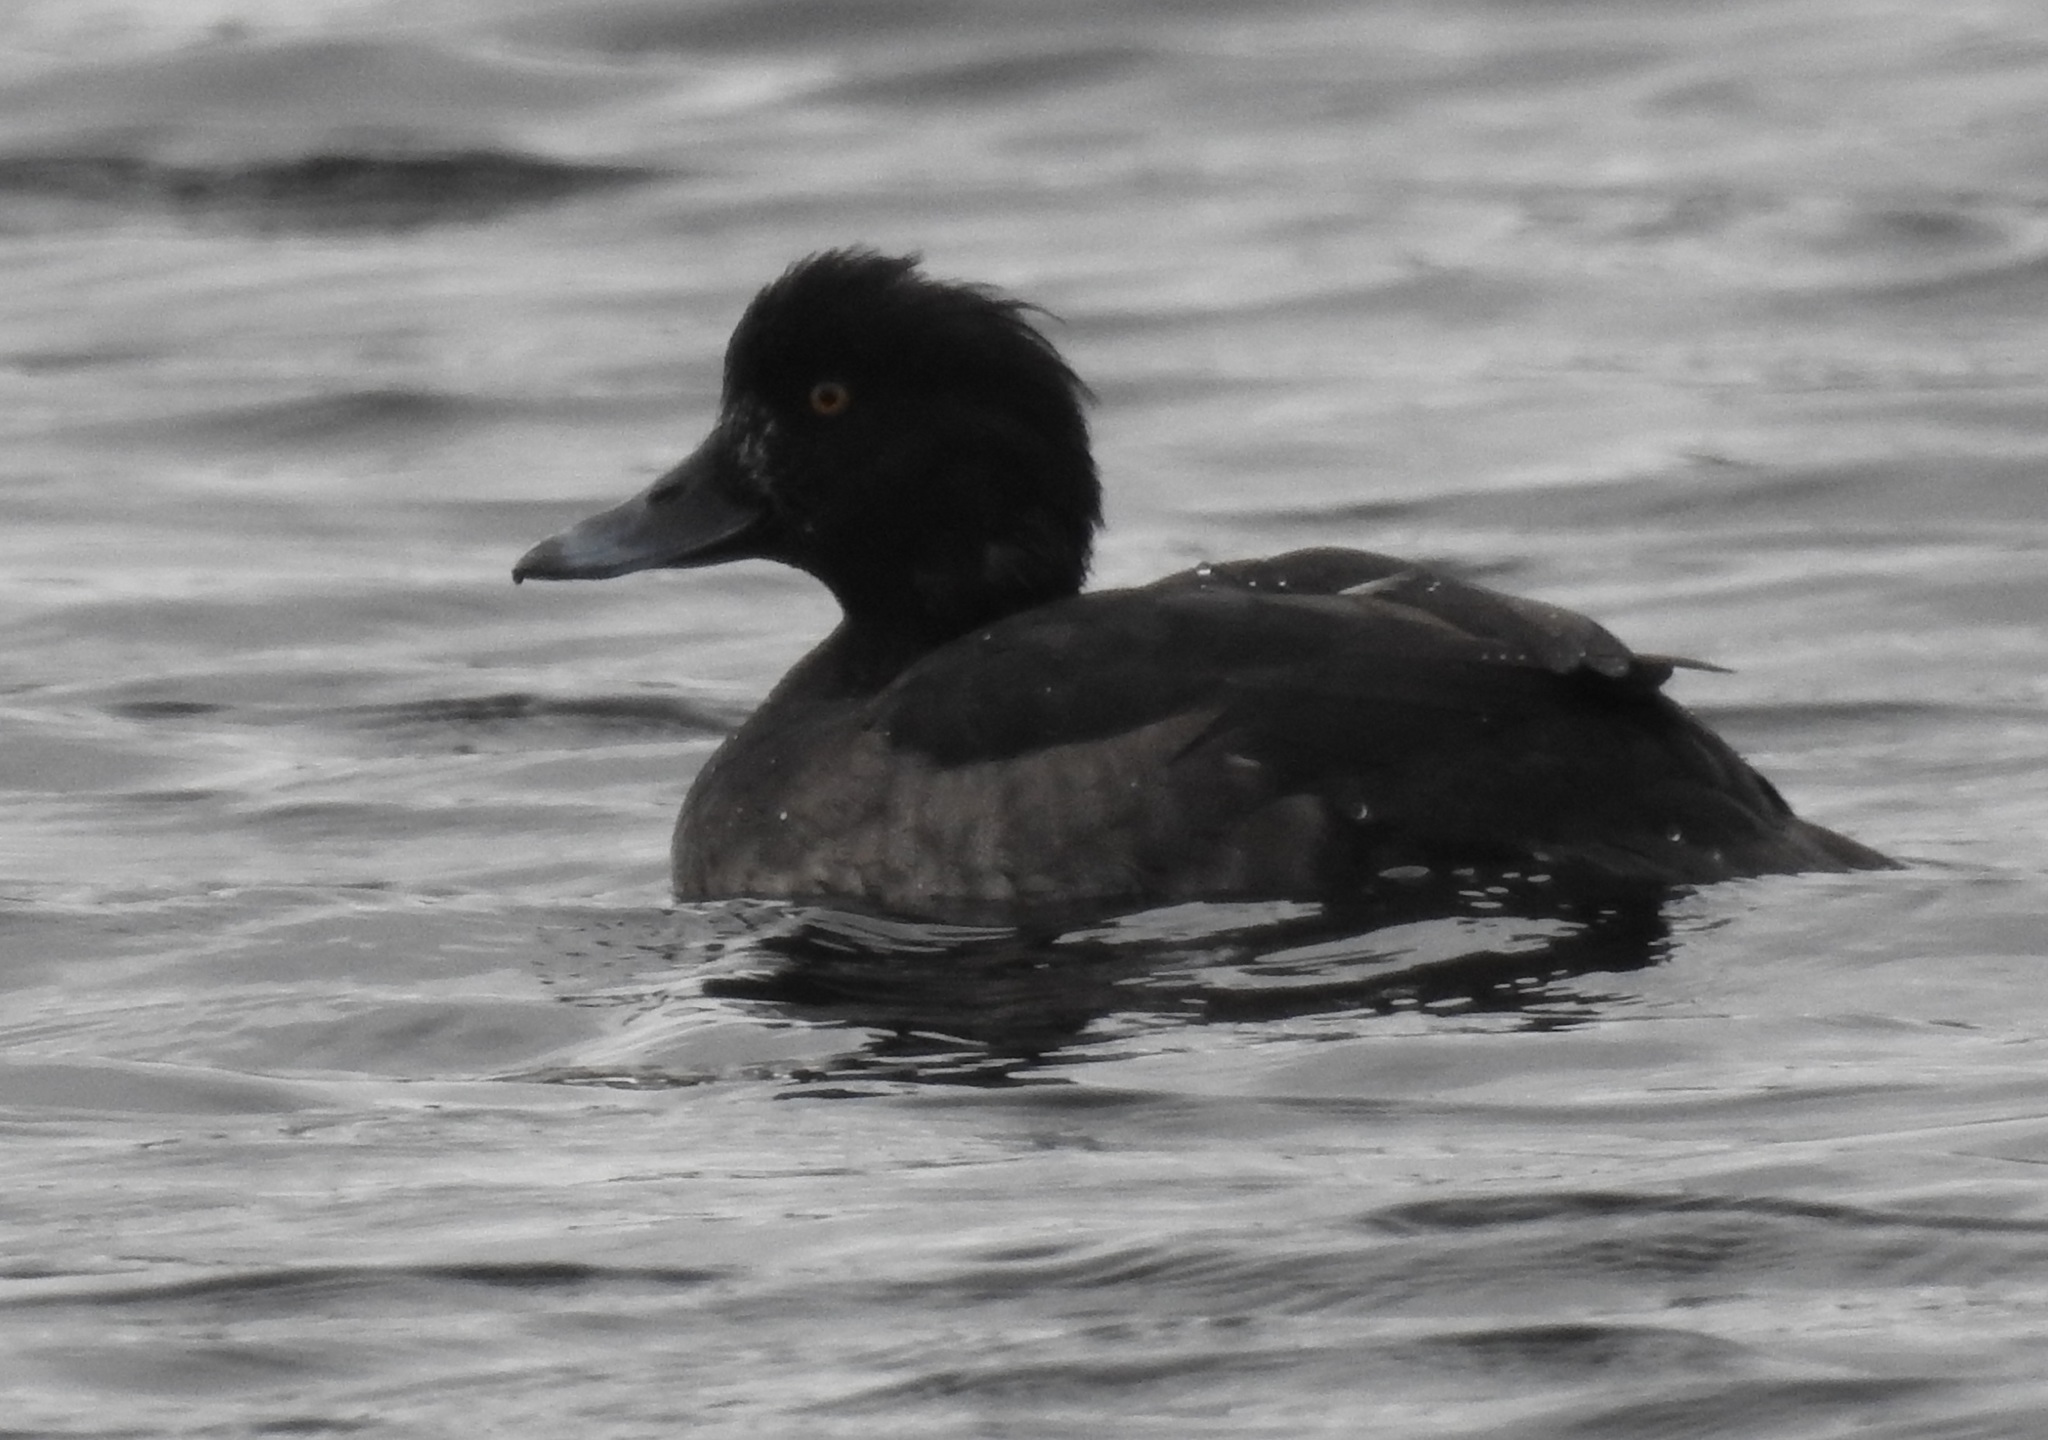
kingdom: Animalia
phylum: Chordata
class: Aves
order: Anseriformes
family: Anatidae
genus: Aythya
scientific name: Aythya fuligula
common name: Tufted duck
